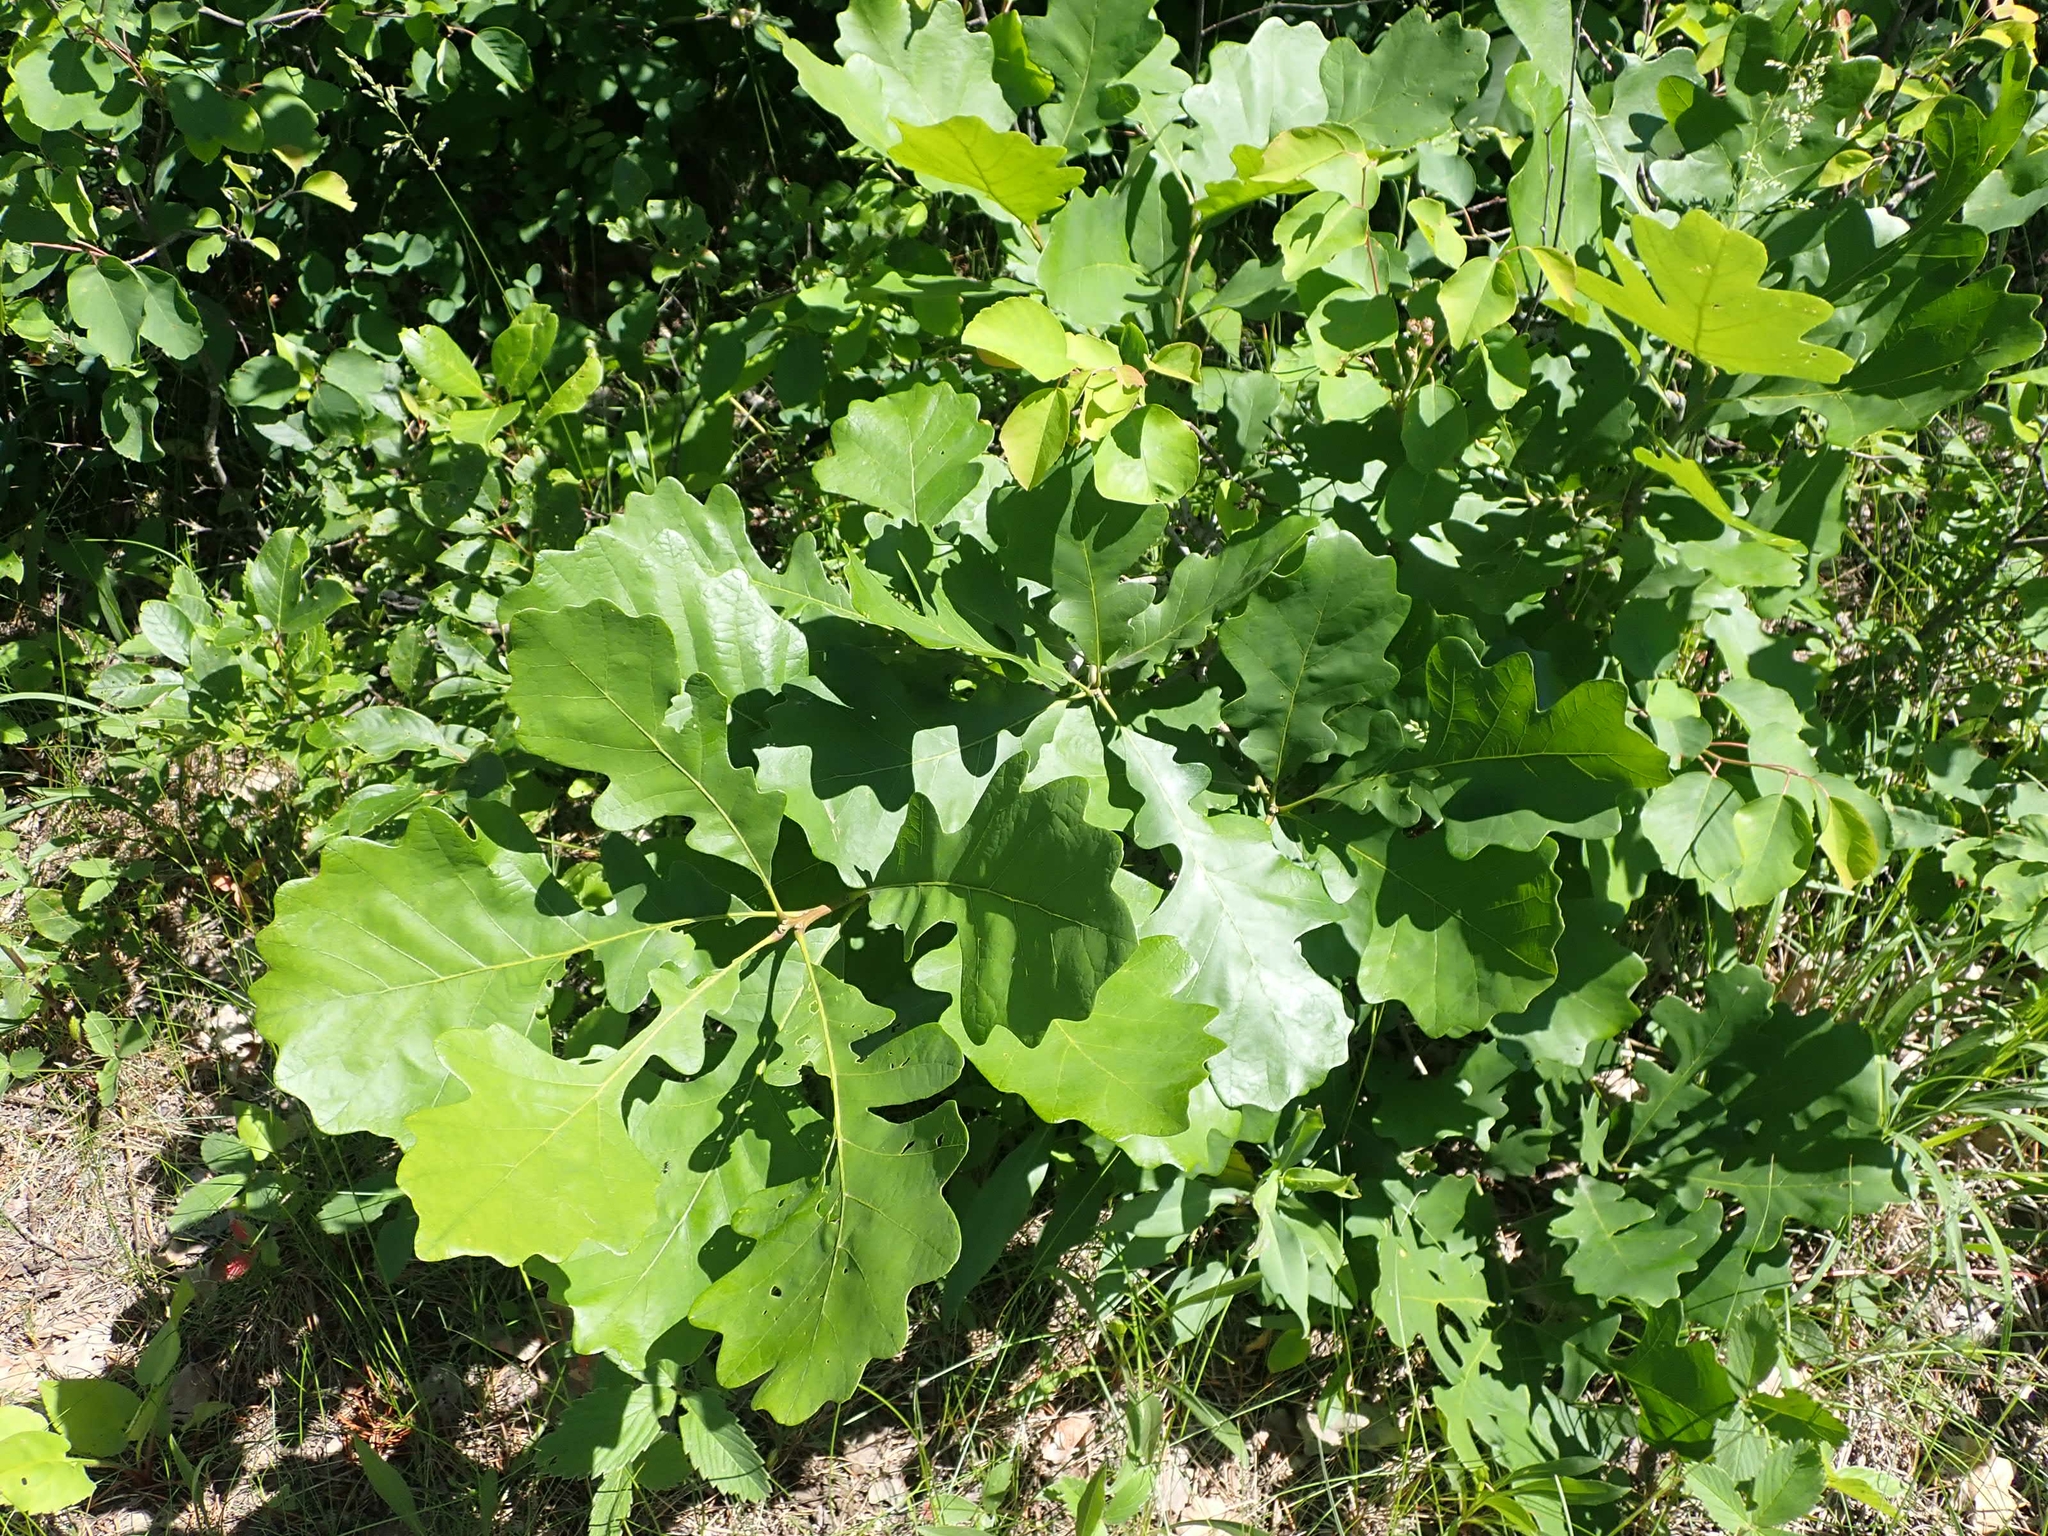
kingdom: Plantae
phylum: Tracheophyta
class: Magnoliopsida
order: Fagales
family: Fagaceae
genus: Quercus
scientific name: Quercus macrocarpa
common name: Bur oak
